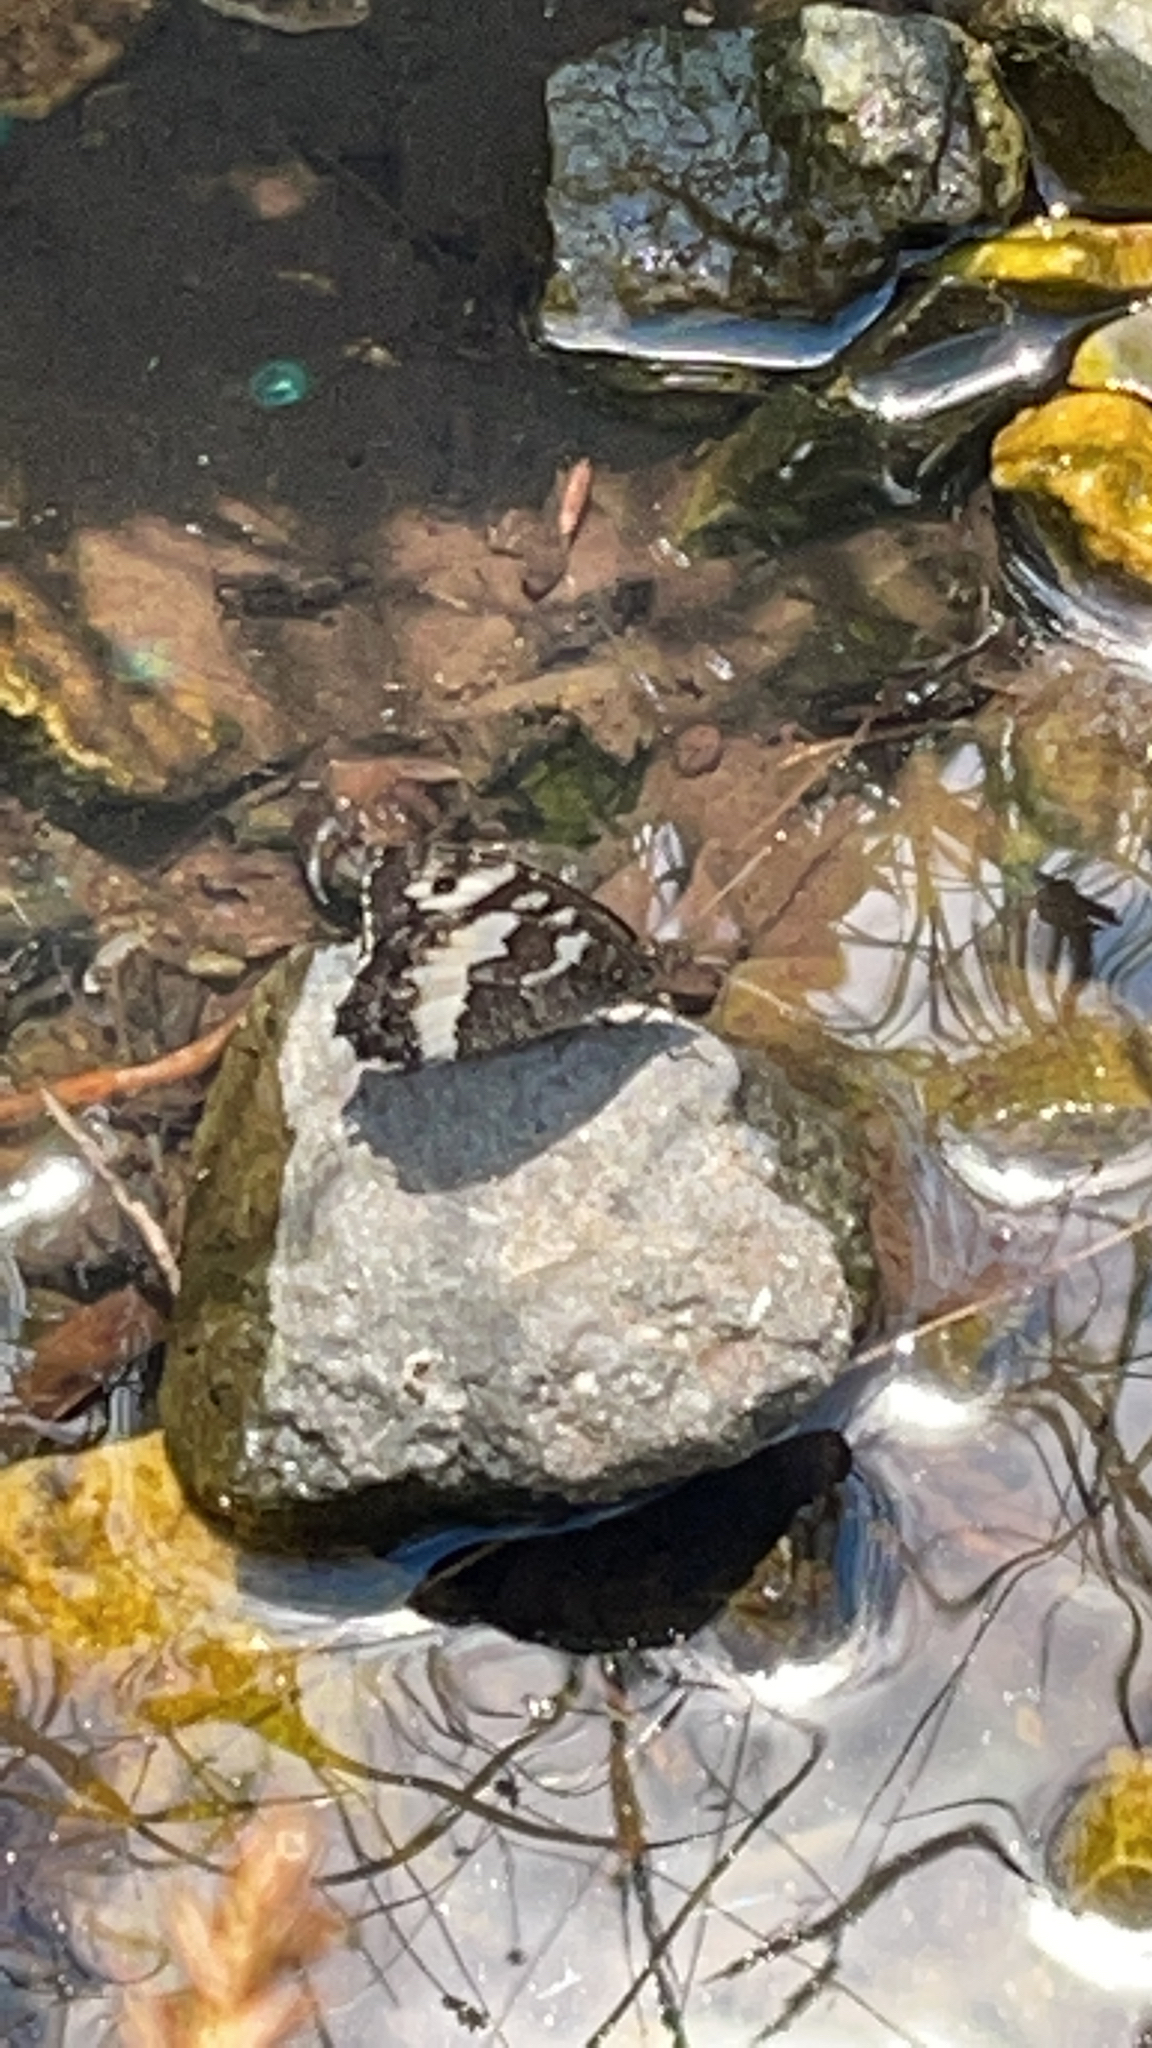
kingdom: Animalia
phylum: Arthropoda
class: Insecta
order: Lepidoptera
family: Lycaenidae
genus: Loweia
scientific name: Loweia tityrus
